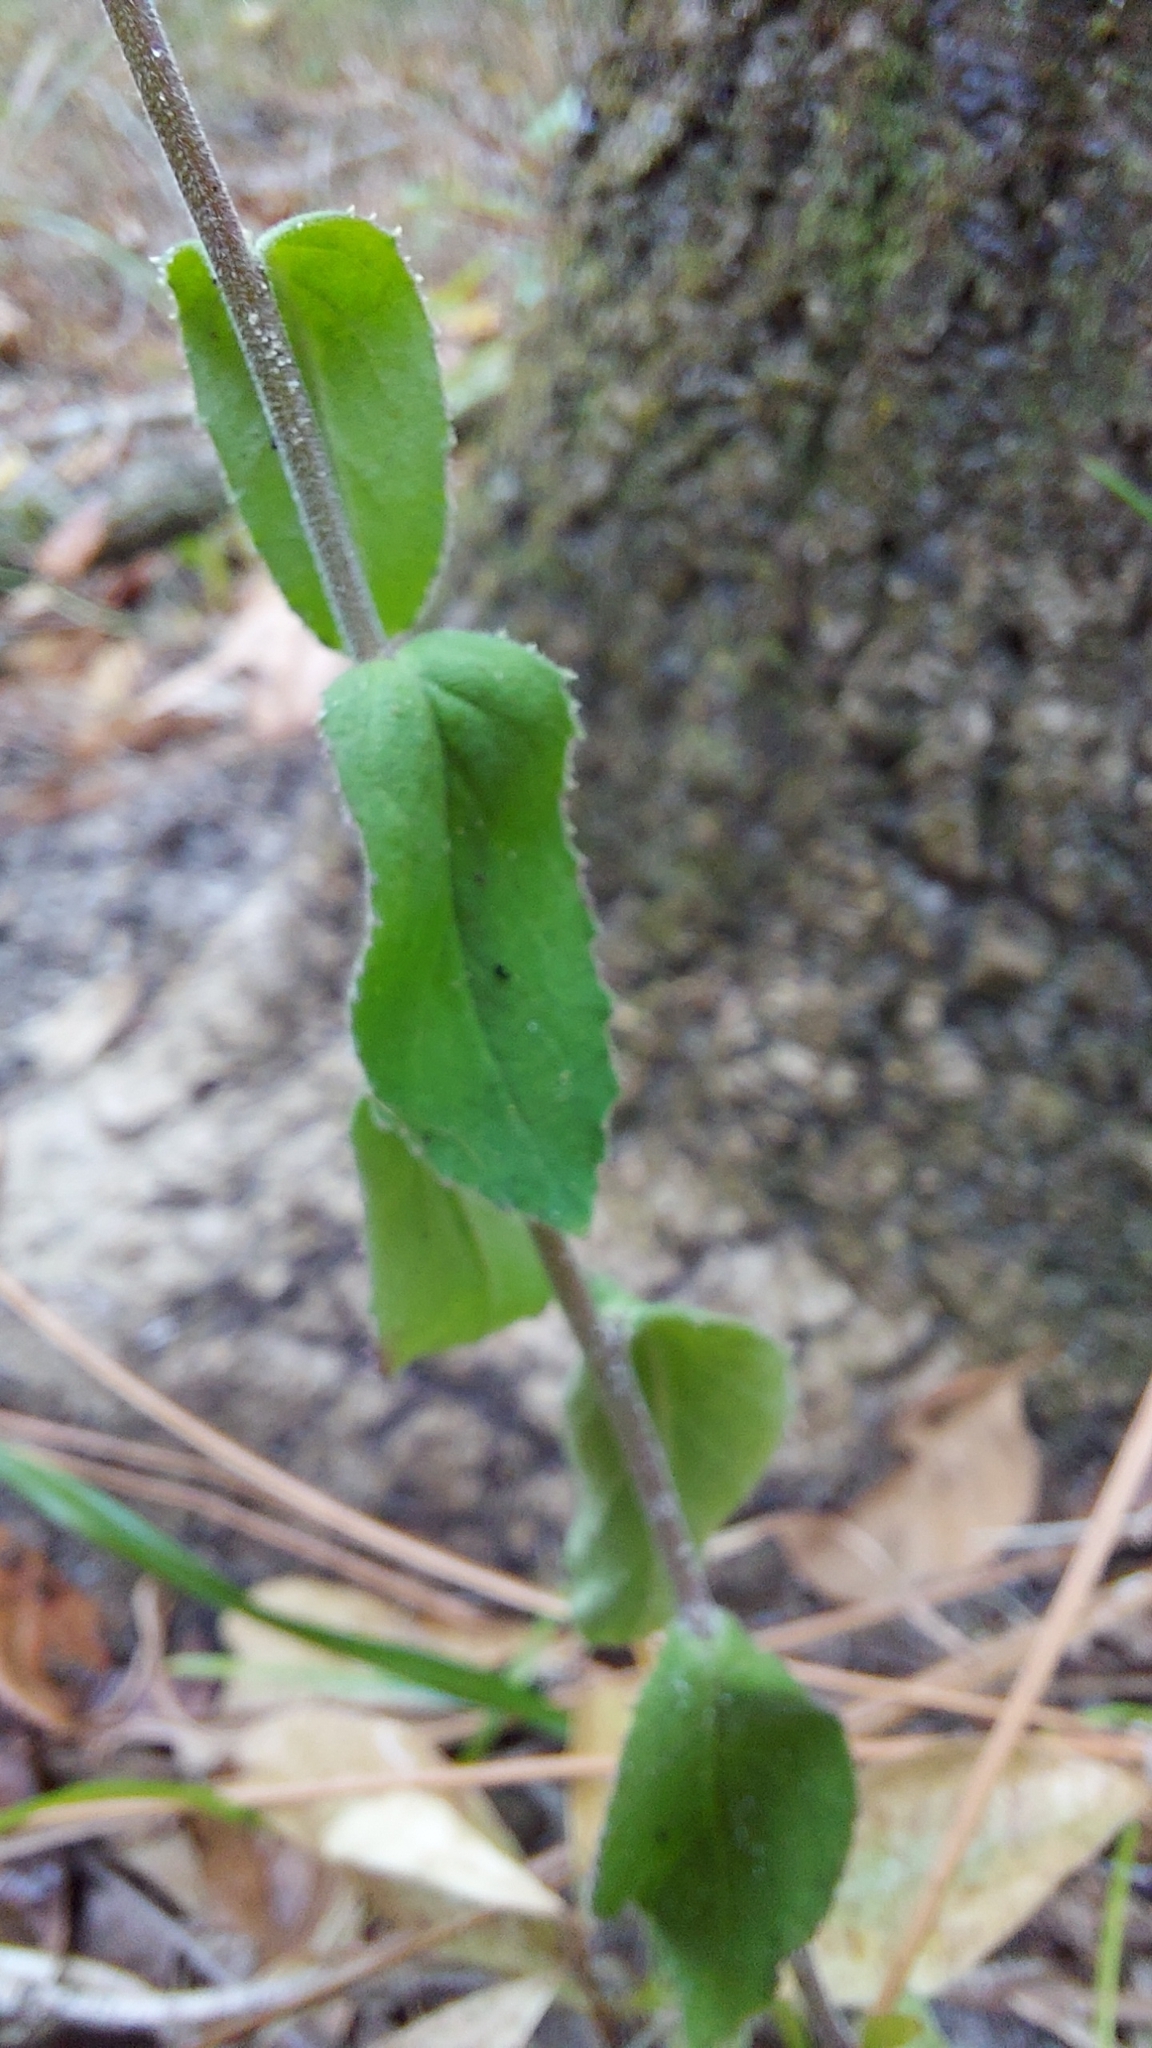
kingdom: Plantae
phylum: Tracheophyta
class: Magnoliopsida
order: Asterales
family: Campanulaceae
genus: Lobelia
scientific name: Lobelia puberula
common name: Purple dewdrop
